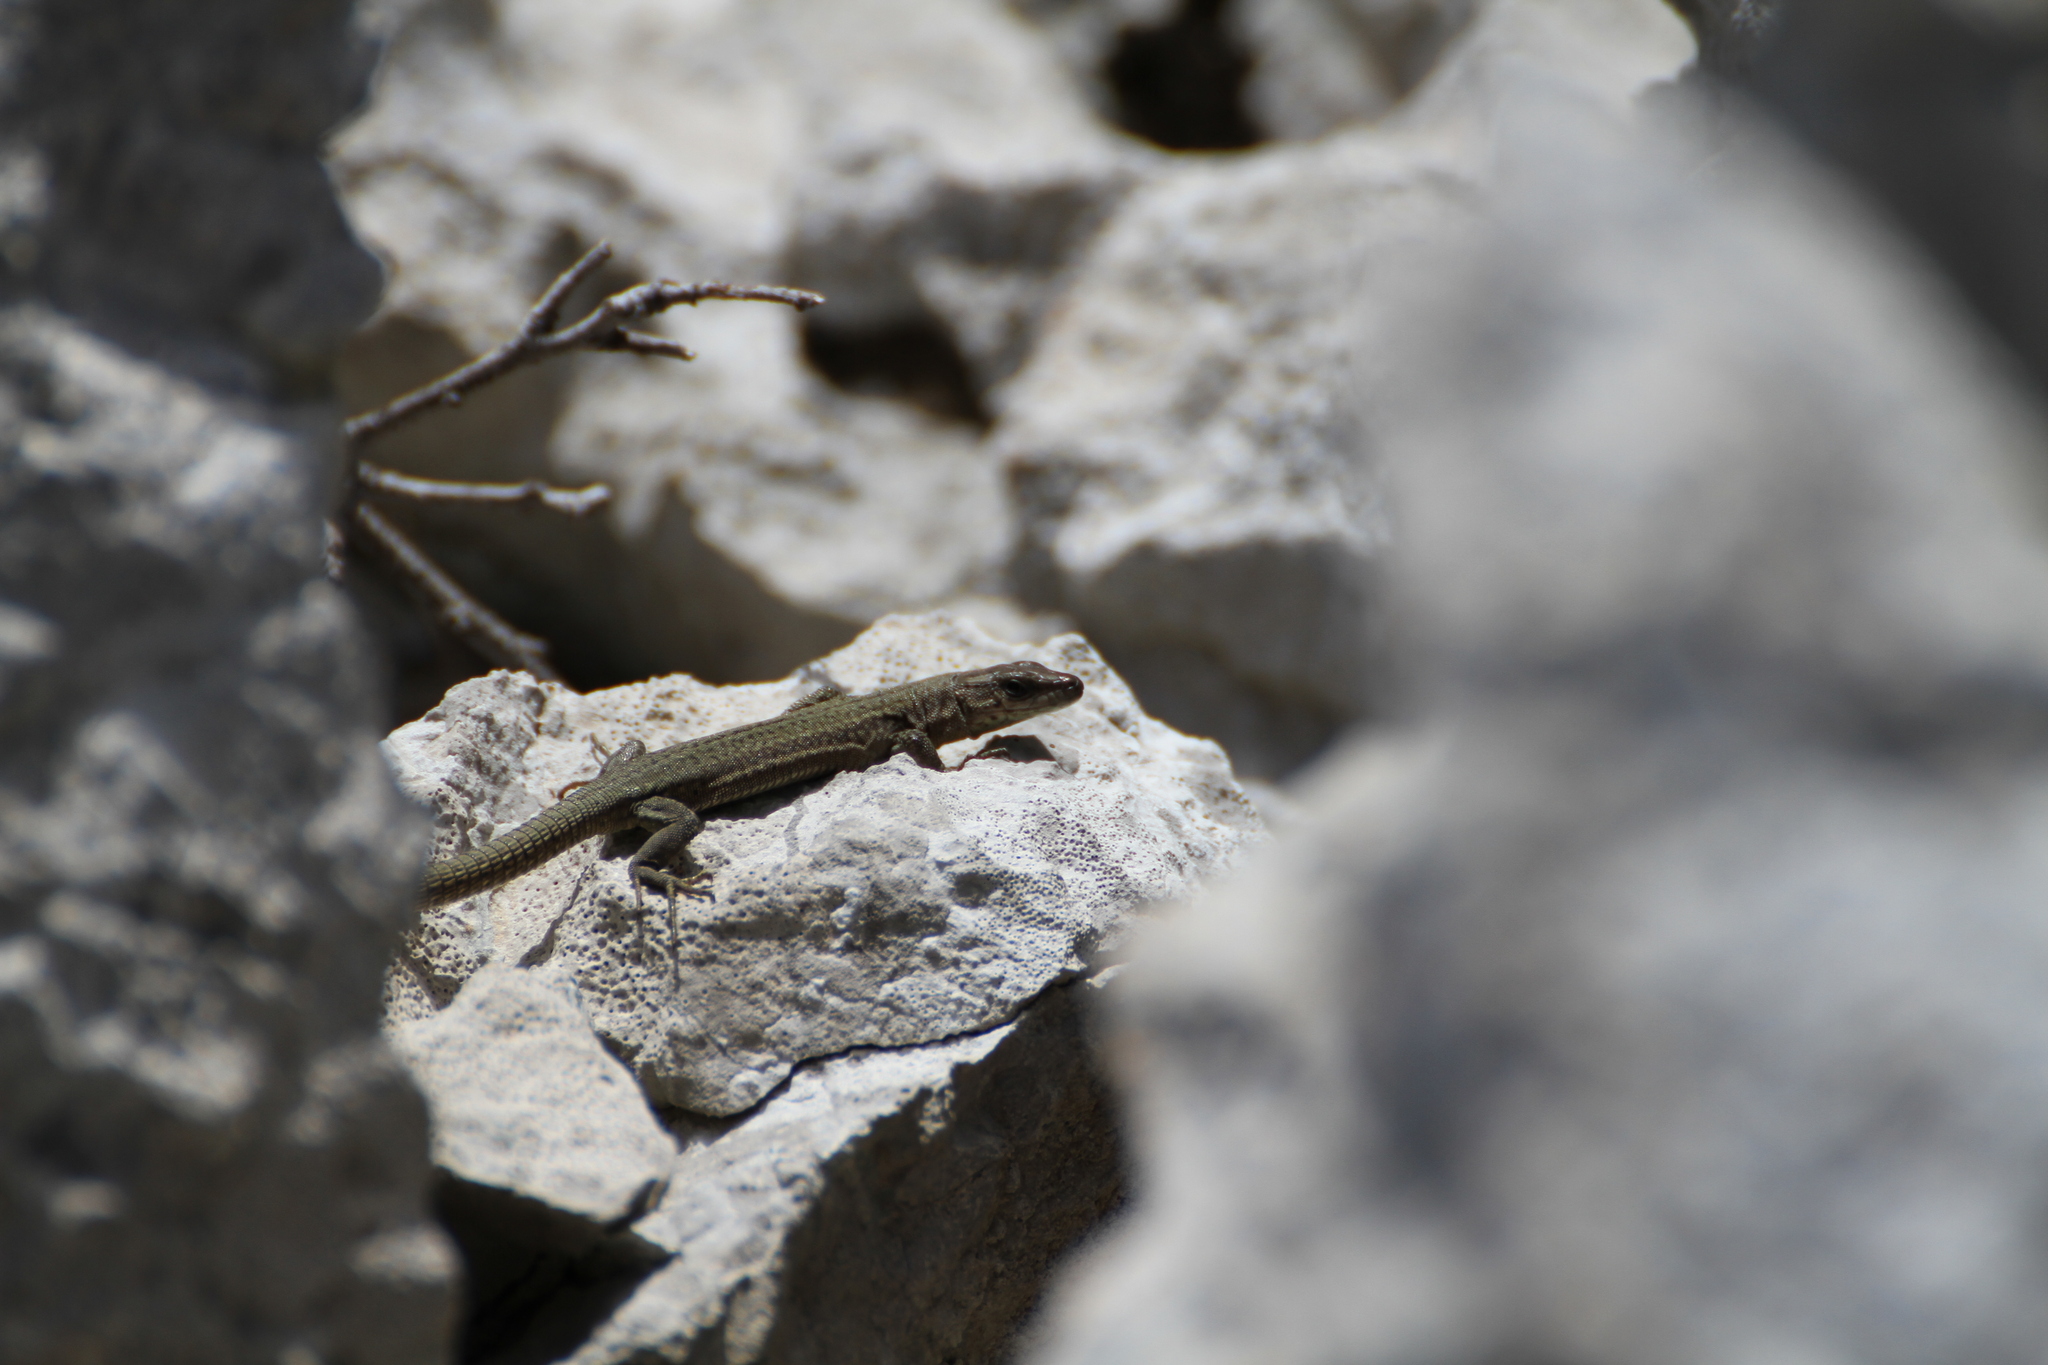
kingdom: Animalia
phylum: Chordata
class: Squamata
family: Lacertidae
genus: Podarcis
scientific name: Podarcis liolepis
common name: Catalonian wall lizard
